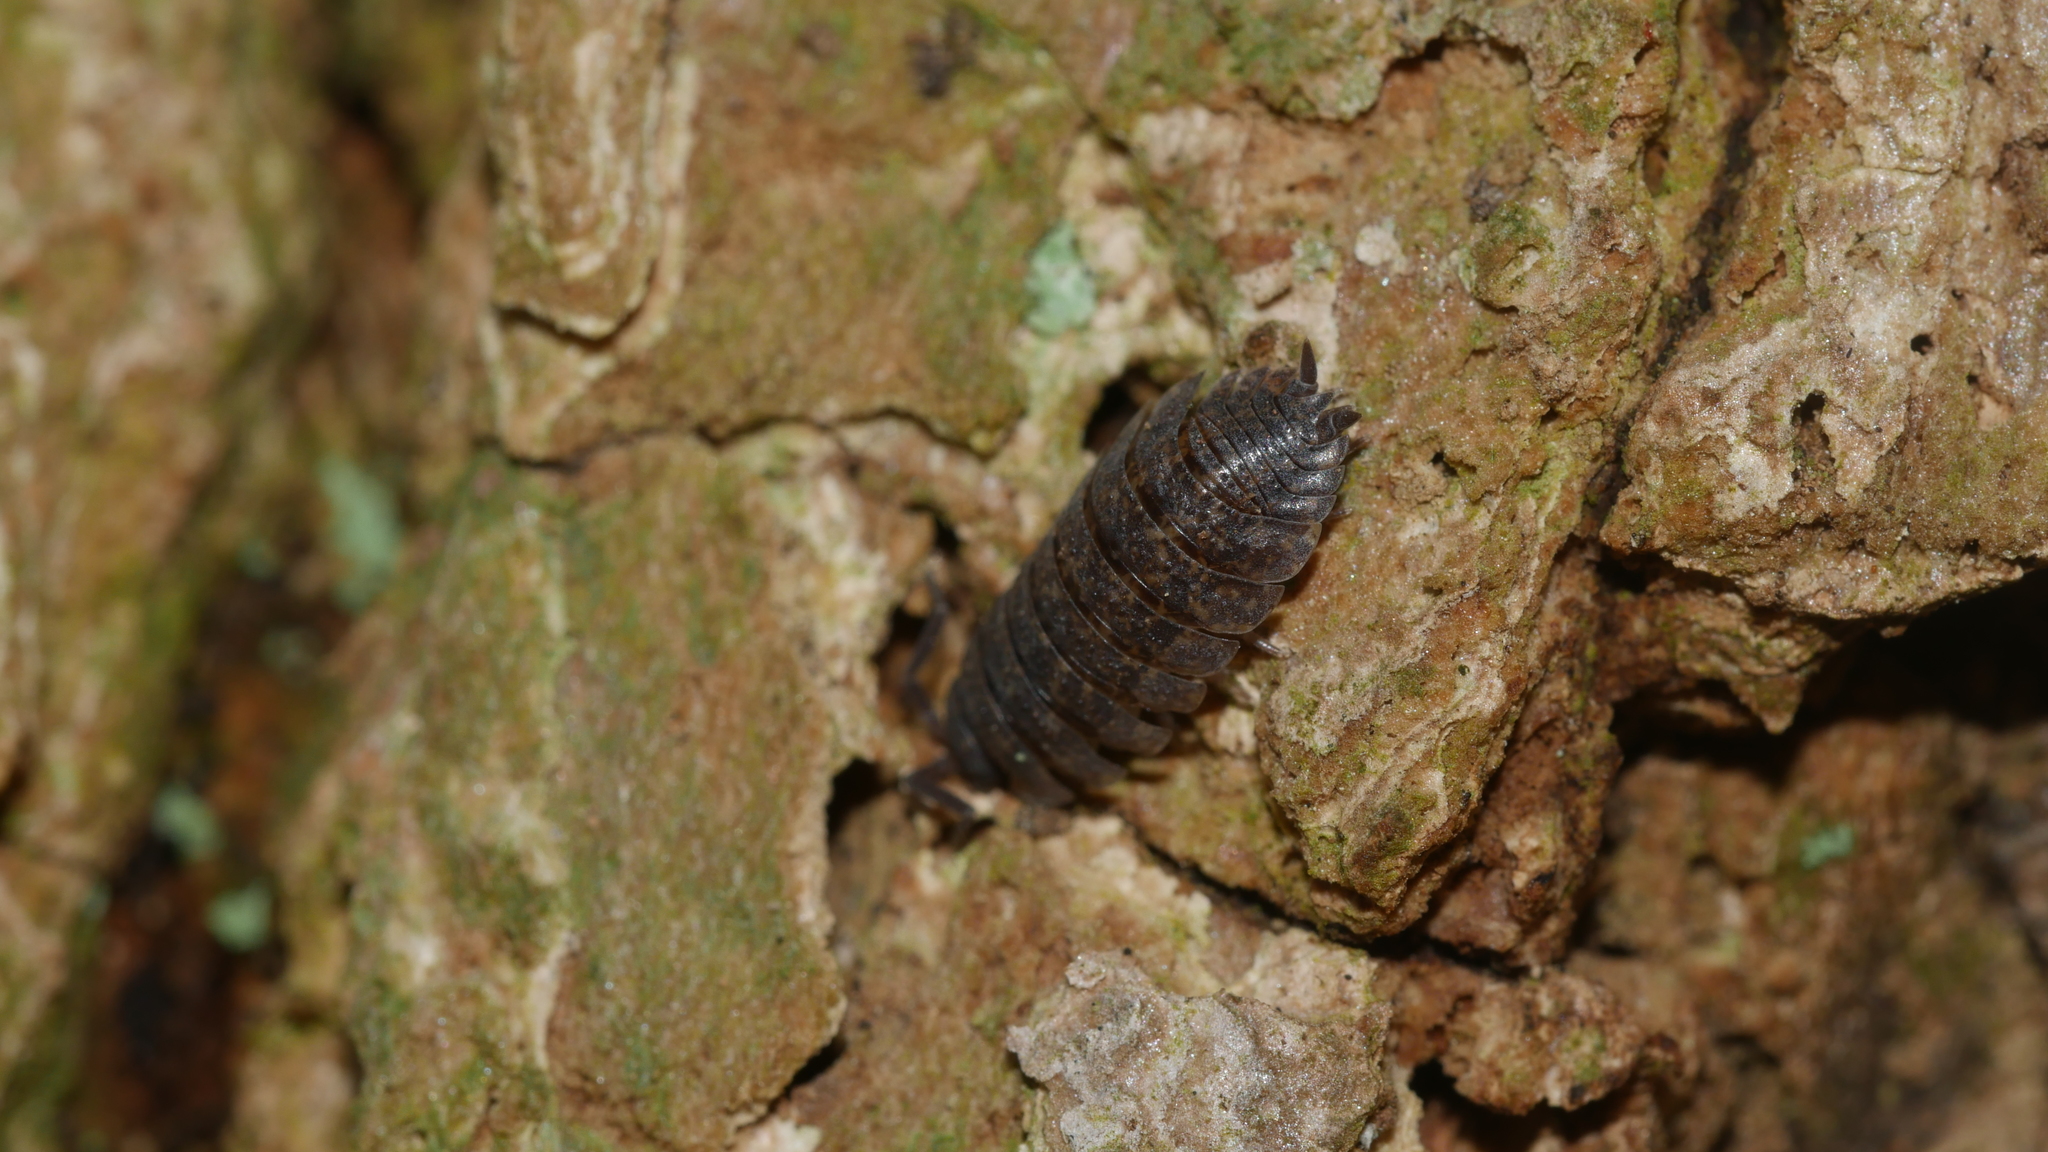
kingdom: Animalia
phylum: Arthropoda
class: Malacostraca
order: Isopoda
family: Porcellionidae
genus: Porcellio
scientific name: Porcellio scaber
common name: Common rough woodlouse
